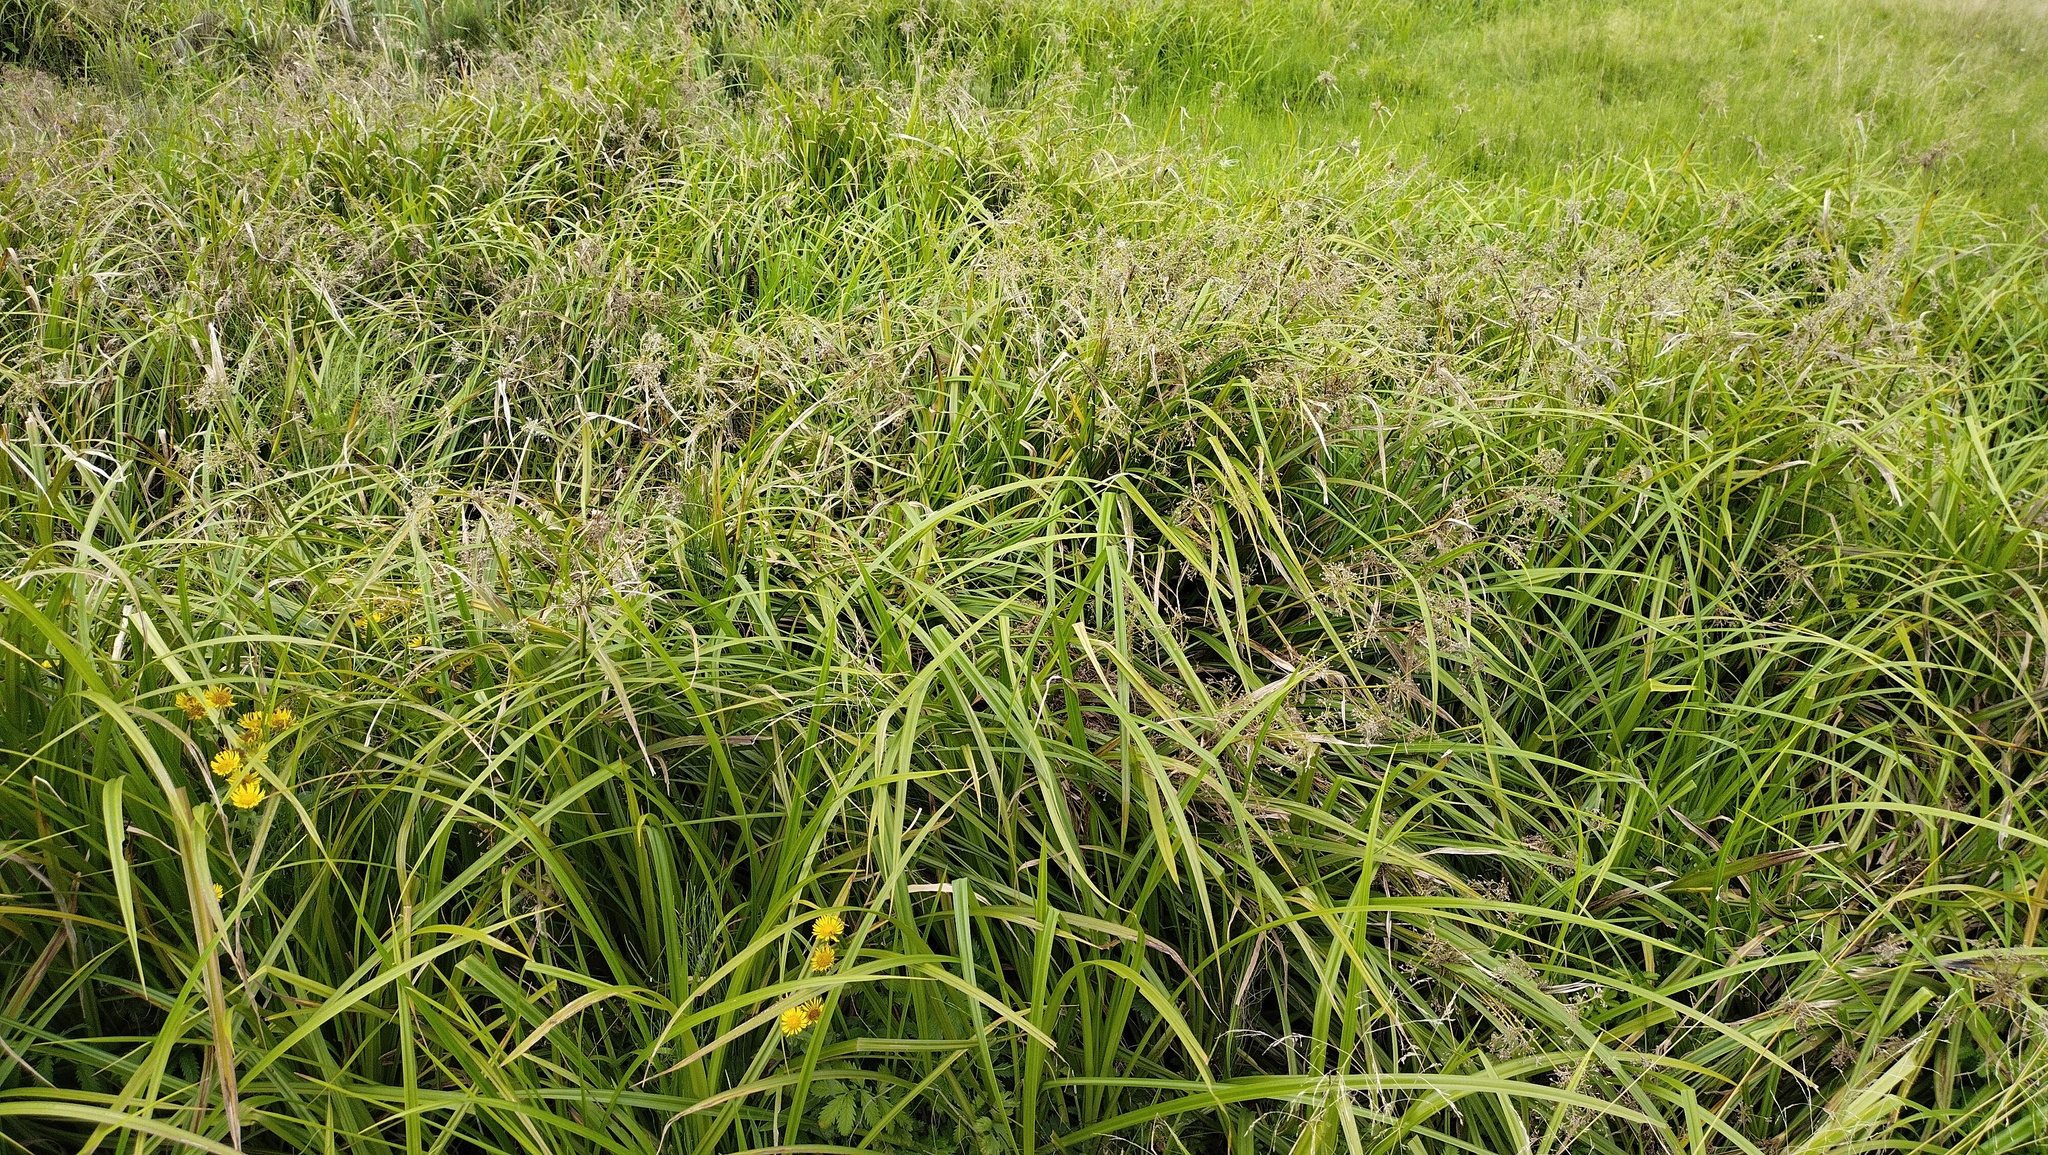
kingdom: Plantae
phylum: Tracheophyta
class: Liliopsida
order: Poales
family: Cyperaceae
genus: Scirpus
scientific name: Scirpus sylvaticus
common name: Wood club-rush
